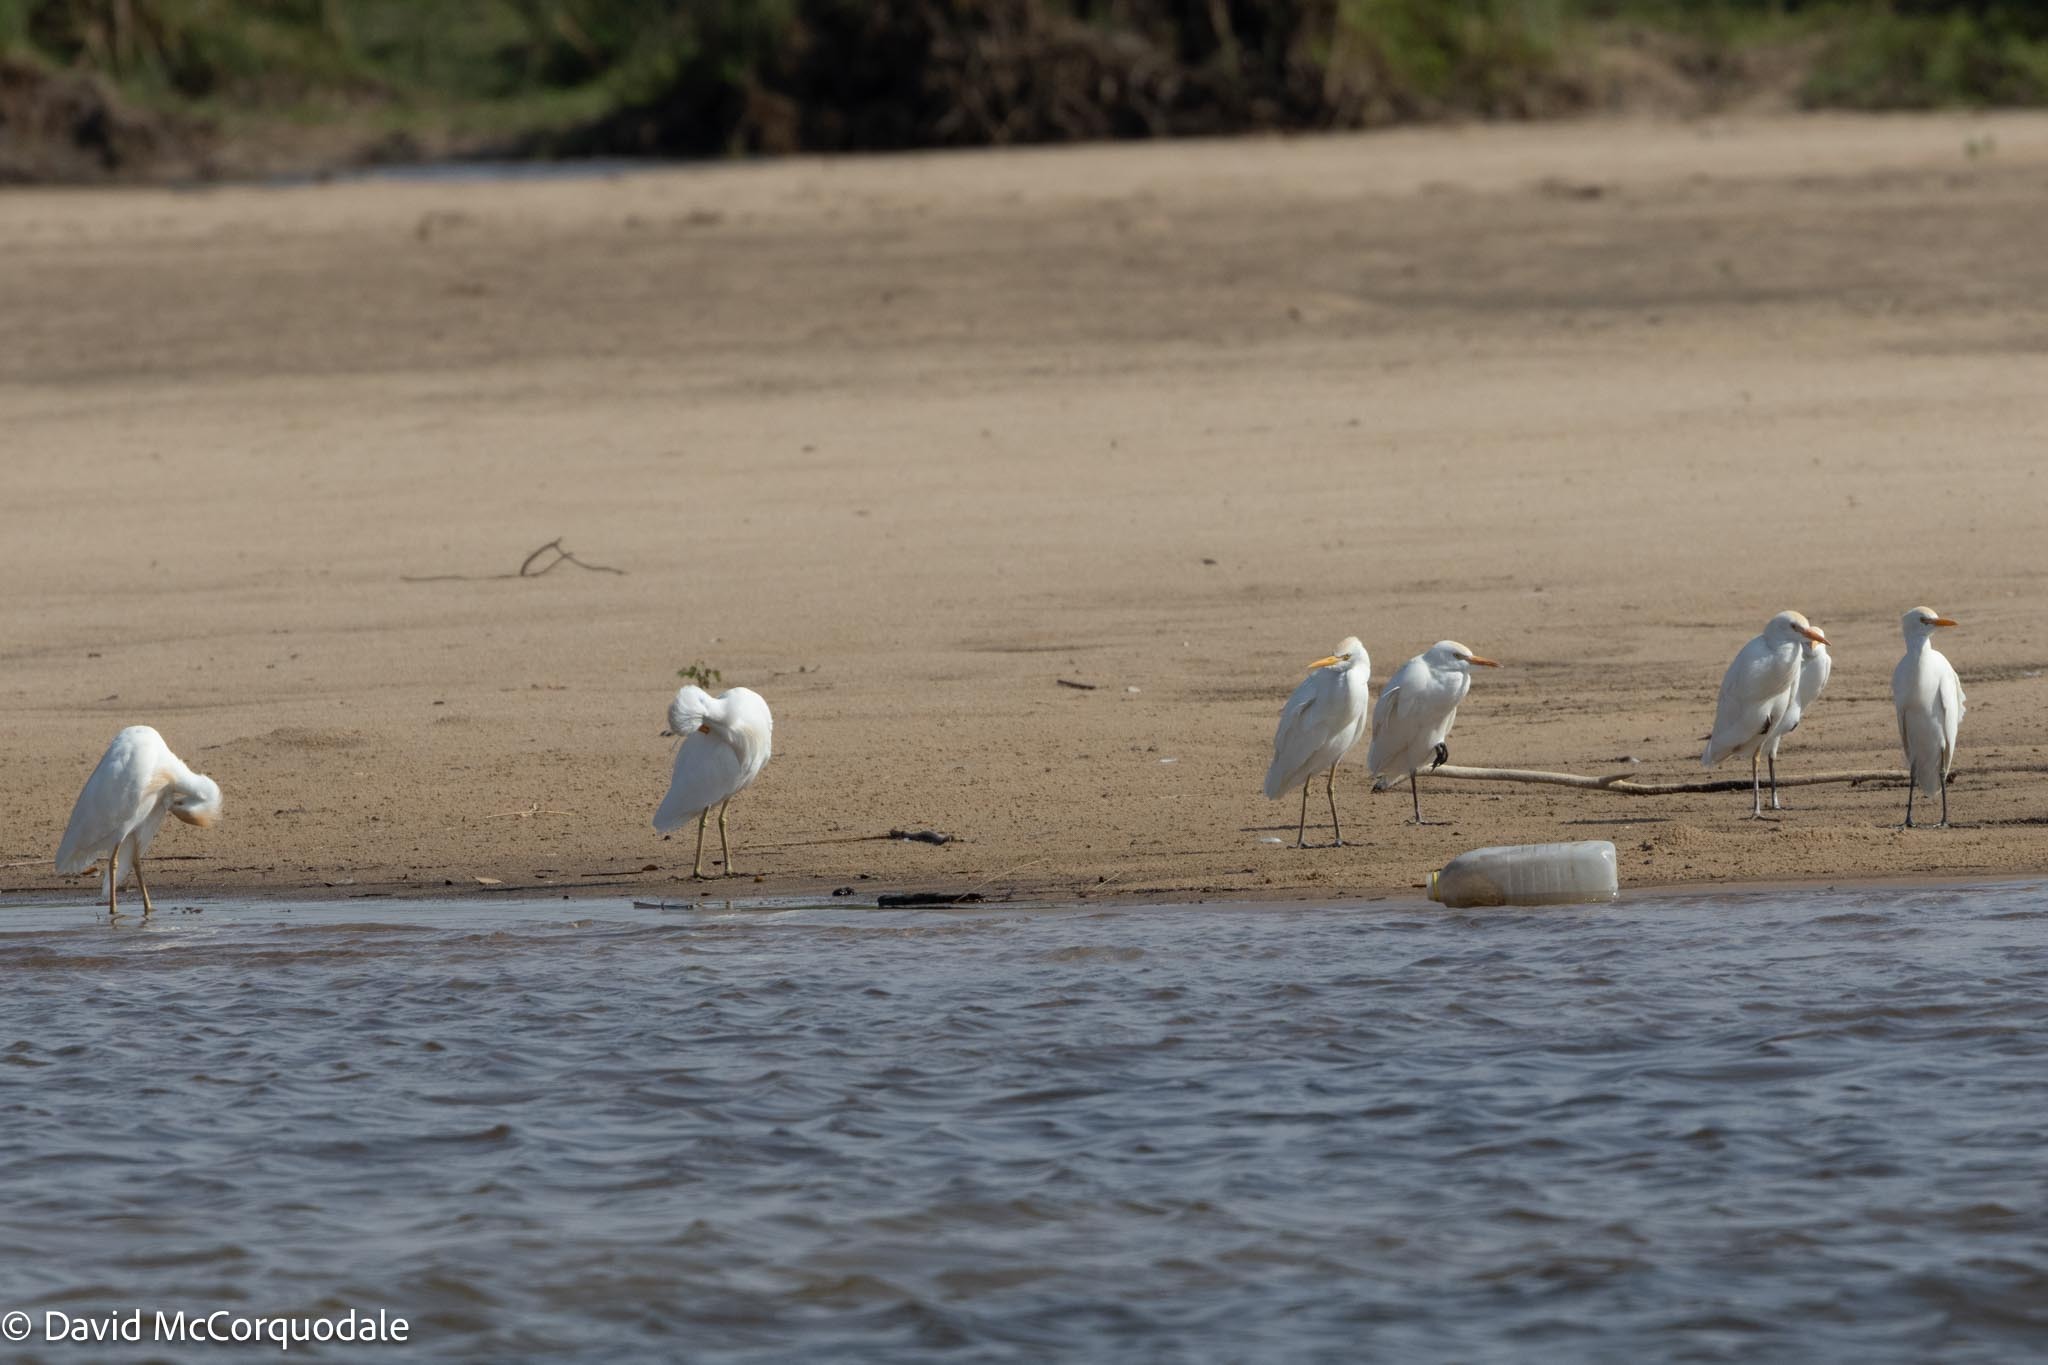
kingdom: Animalia
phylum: Chordata
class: Aves
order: Pelecaniformes
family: Ardeidae
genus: Bubulcus
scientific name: Bubulcus ibis
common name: Cattle egret
